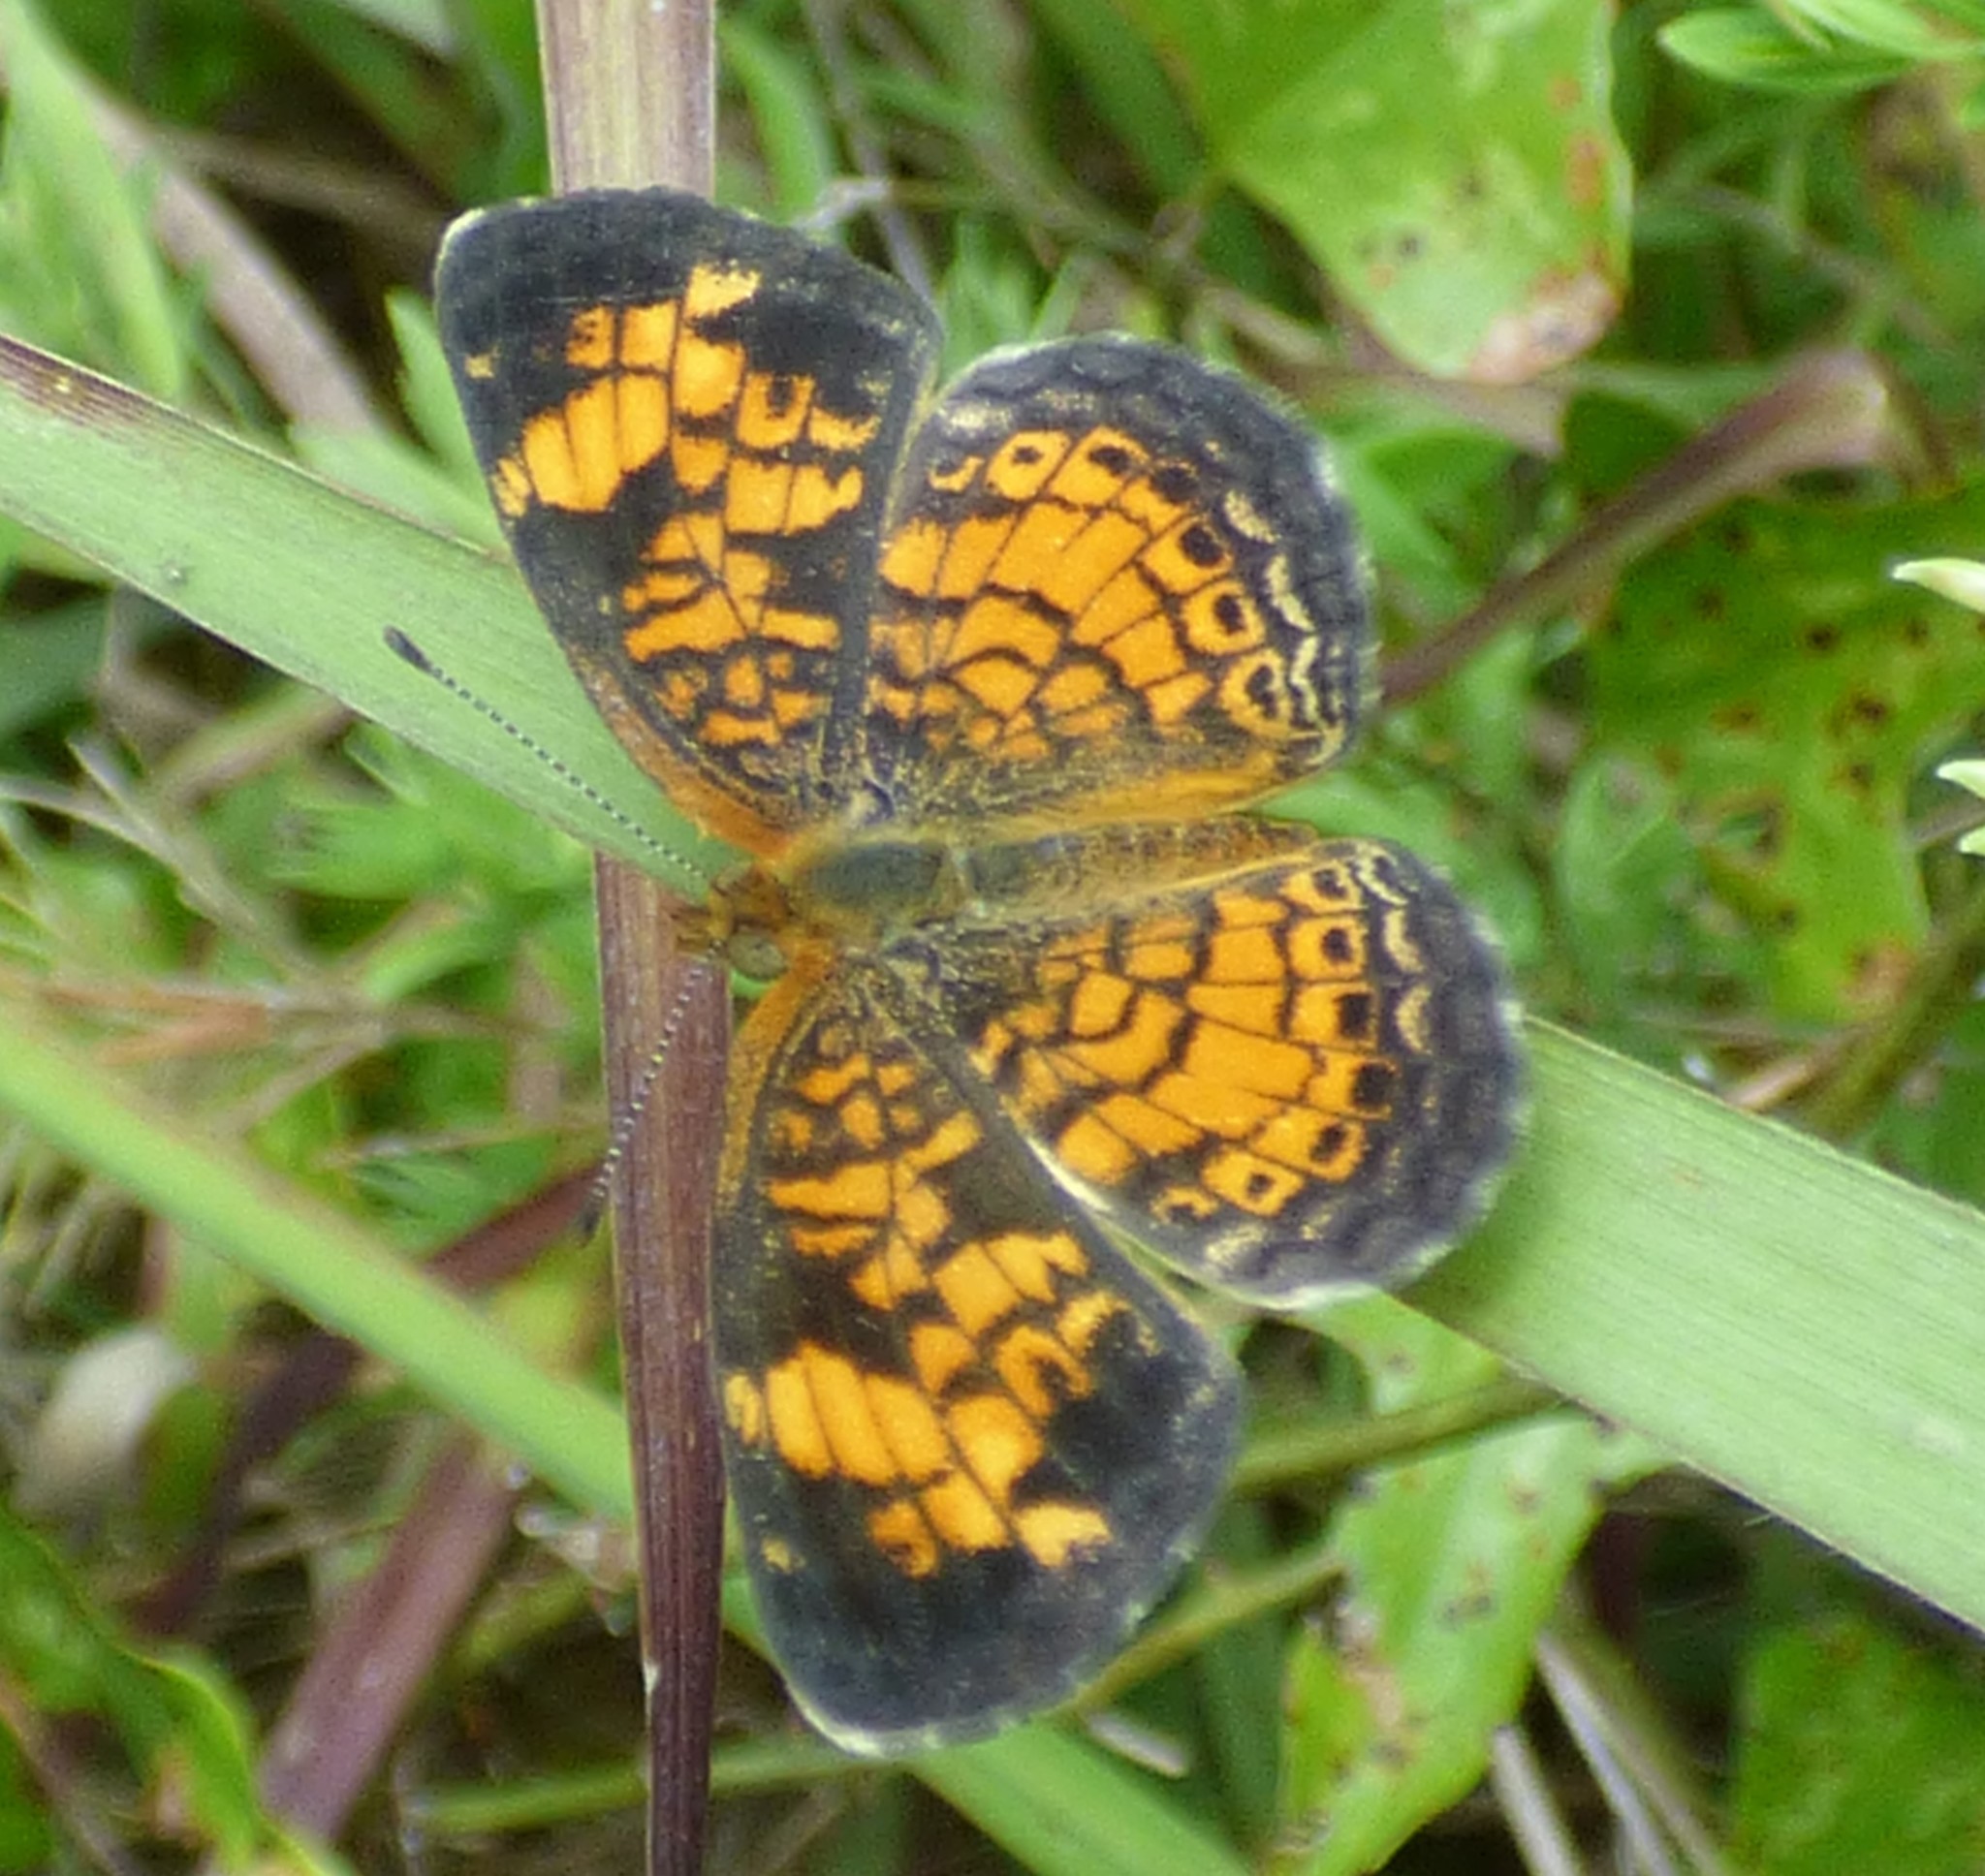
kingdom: Animalia
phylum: Arthropoda
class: Insecta
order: Lepidoptera
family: Nymphalidae
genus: Phyciodes
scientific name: Phyciodes tharos
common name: Pearl crescent
